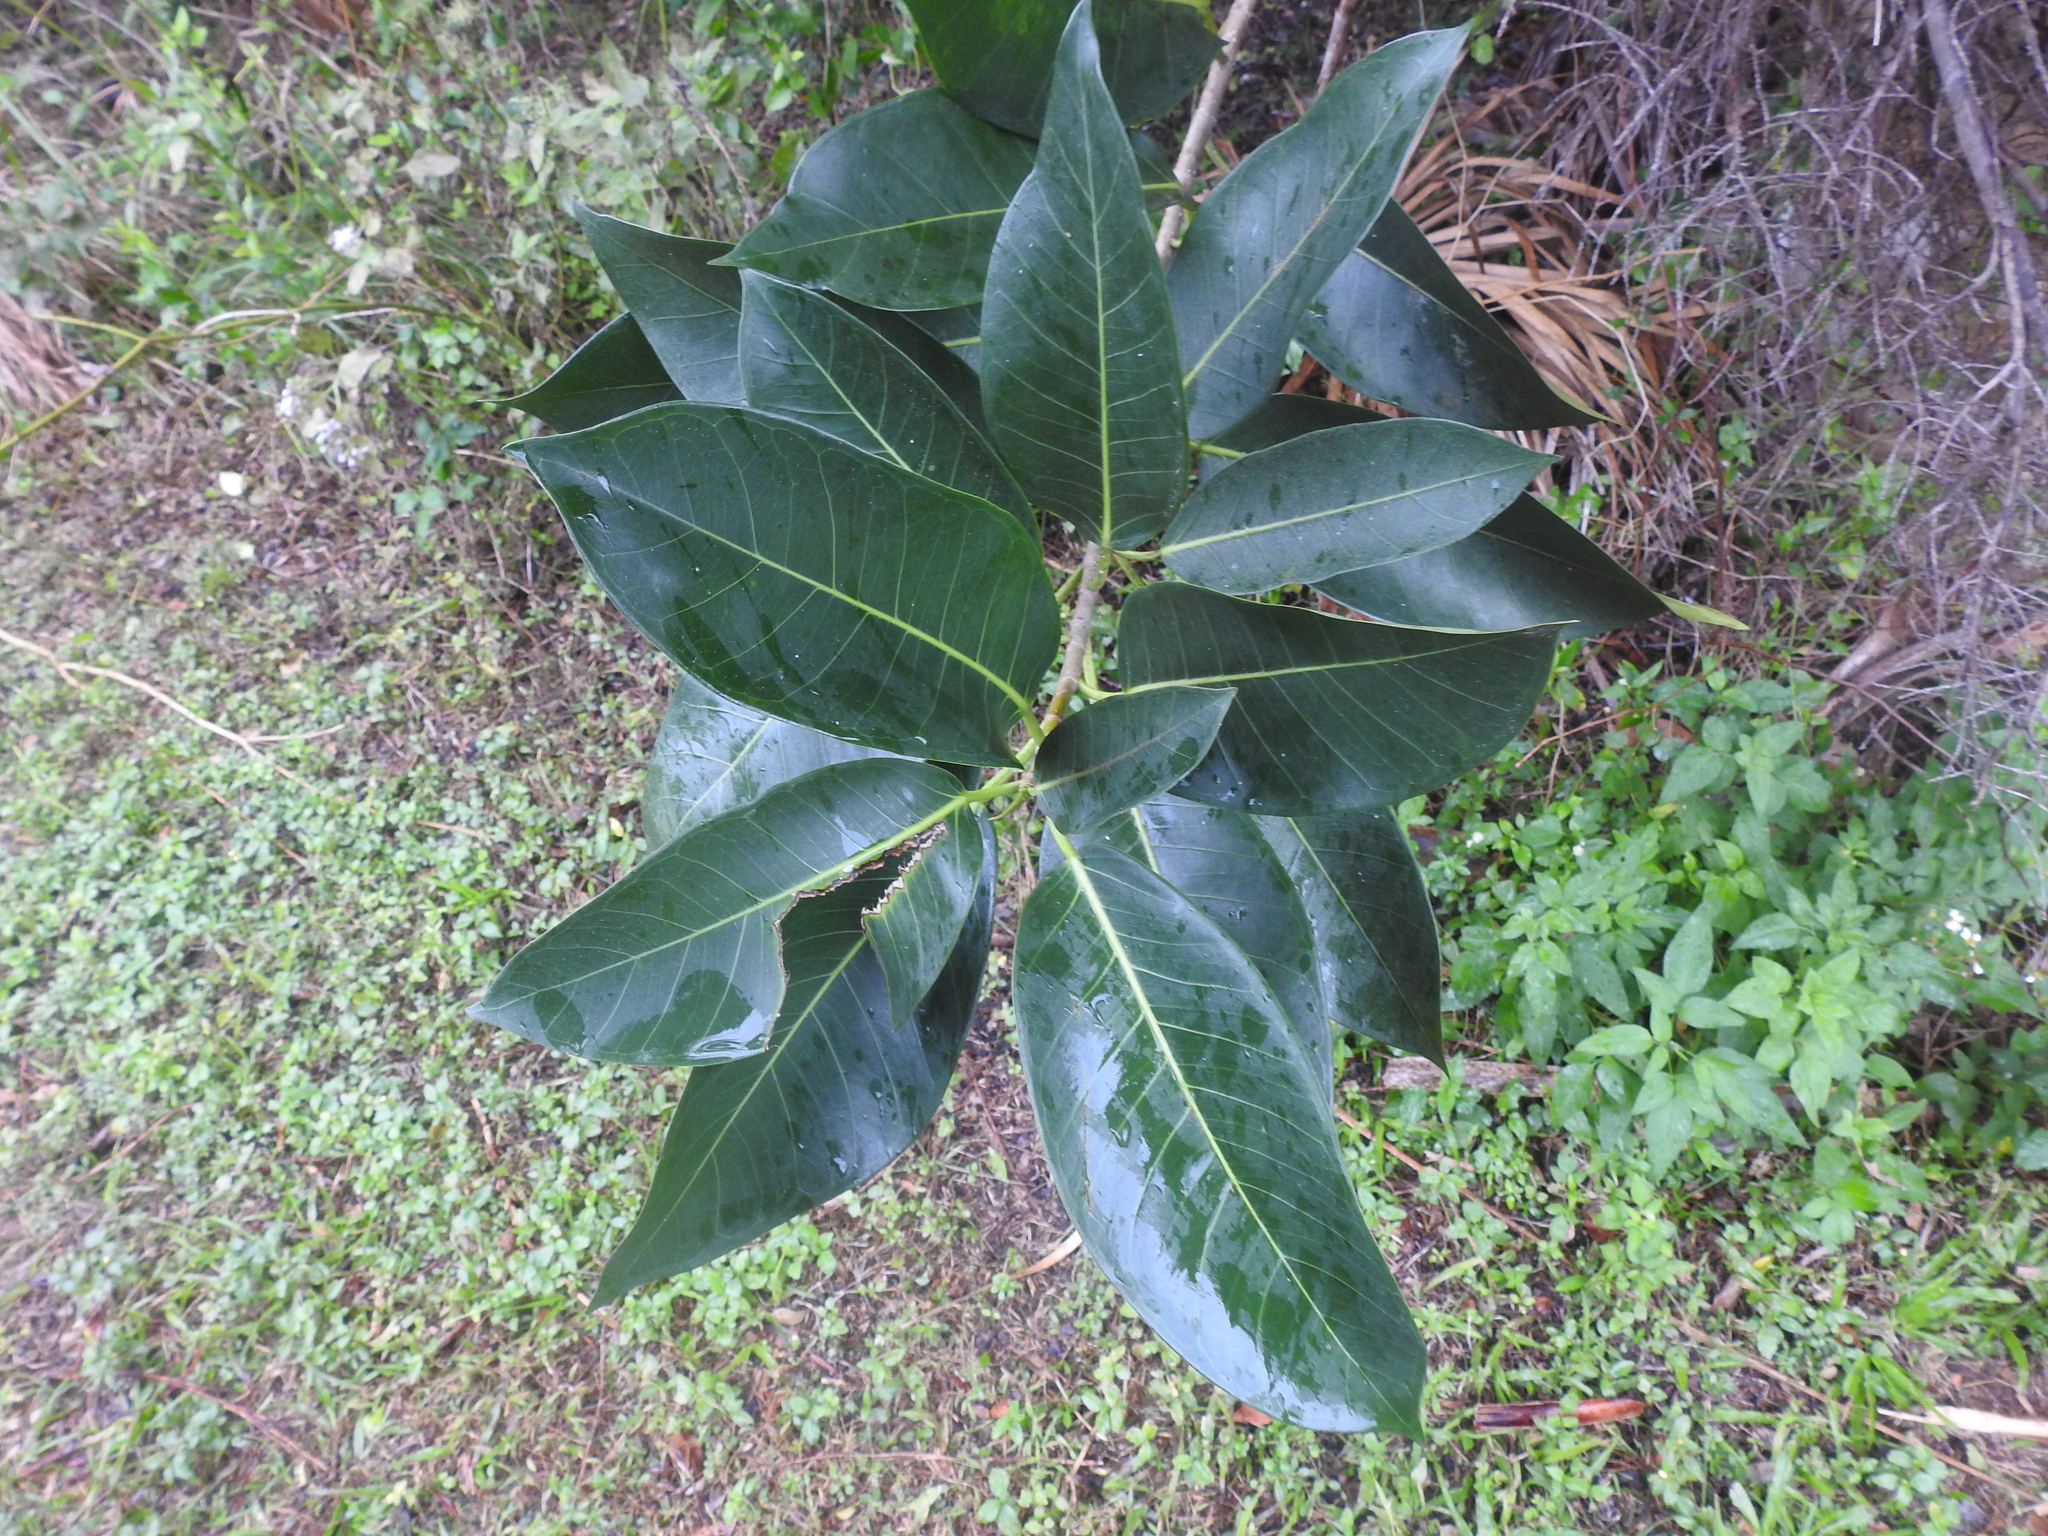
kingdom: Plantae
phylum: Tracheophyta
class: Magnoliopsida
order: Rosales
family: Moraceae
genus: Ficus
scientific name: Ficus aurea
